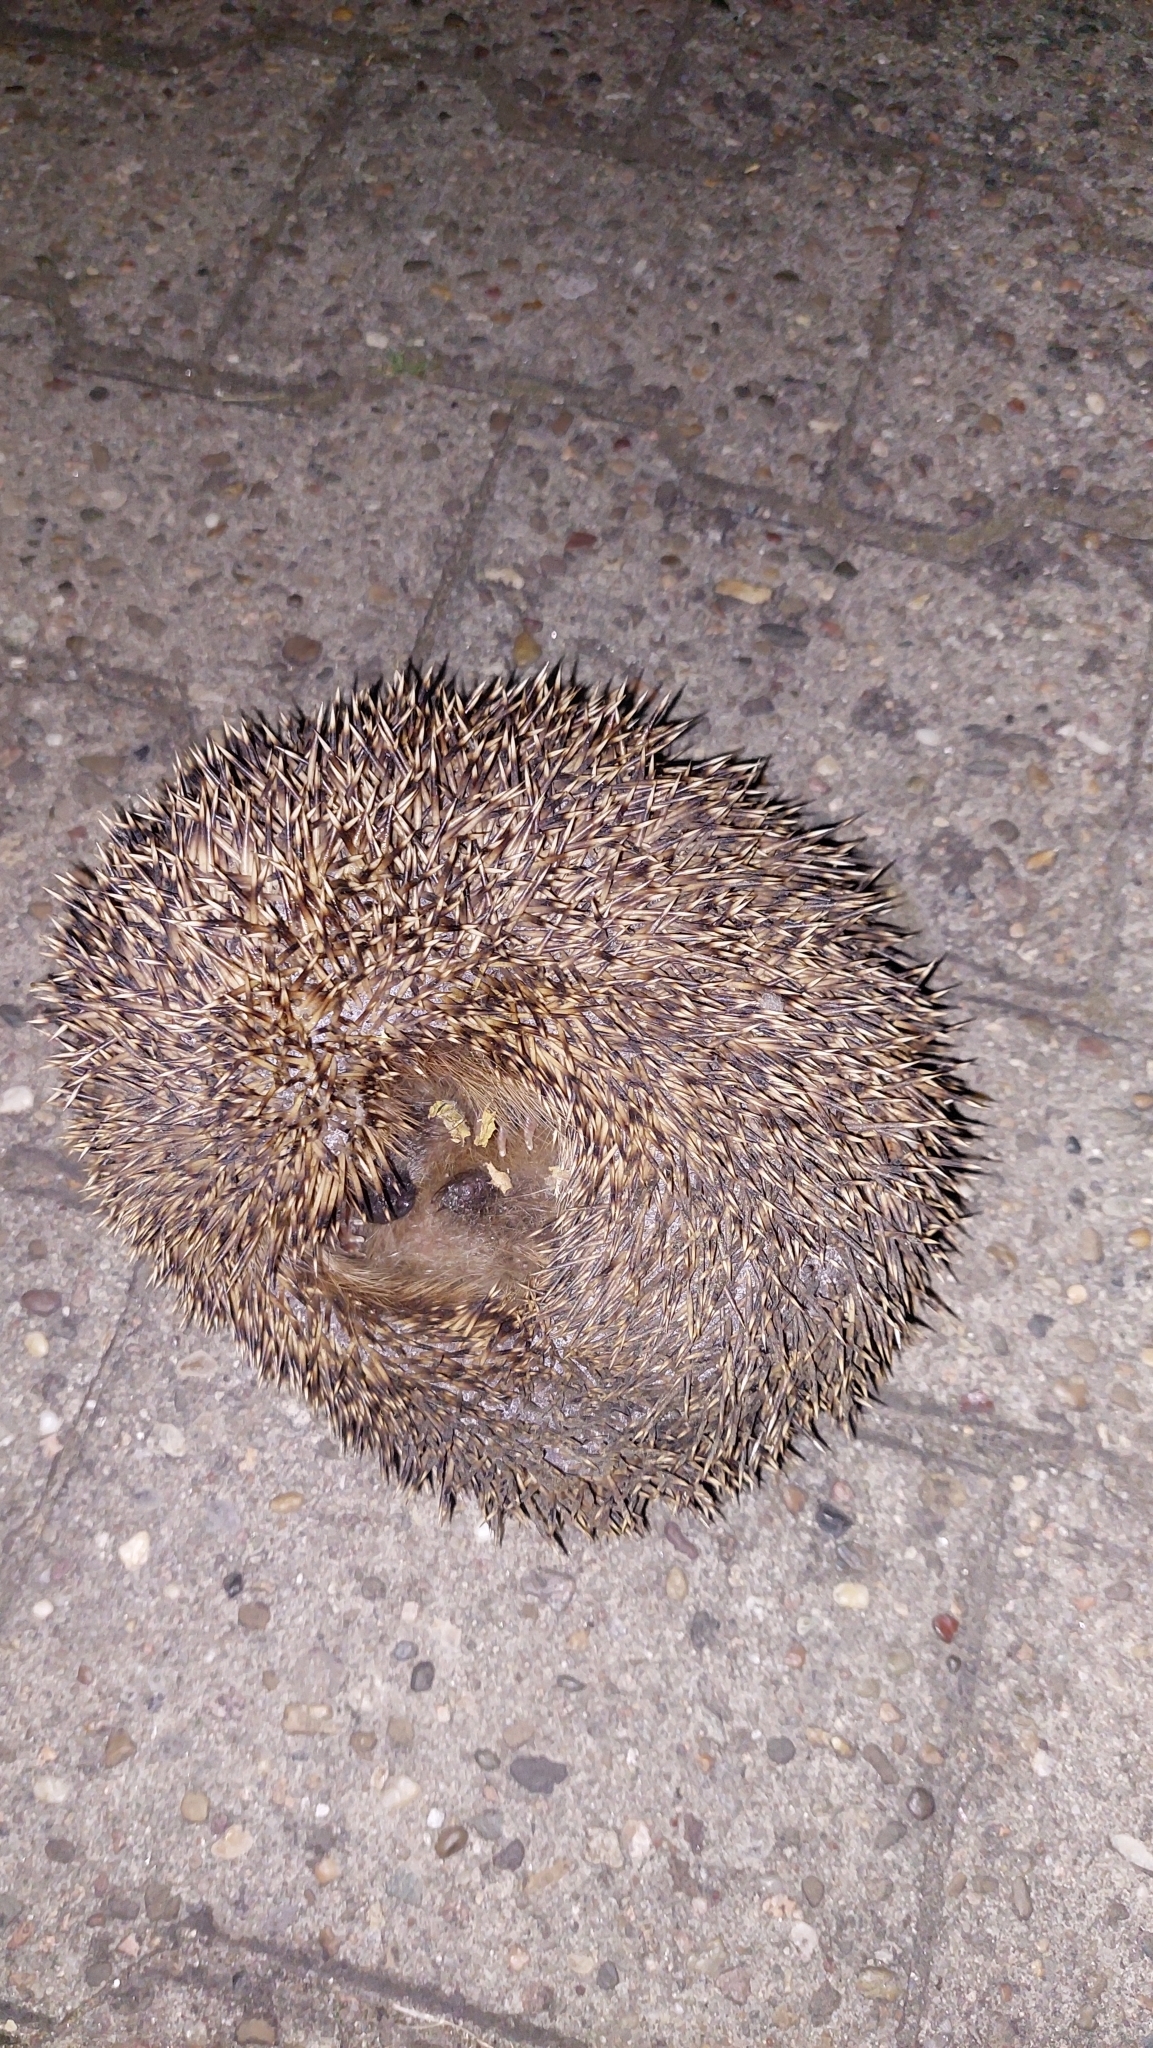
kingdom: Animalia
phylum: Chordata
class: Mammalia
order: Erinaceomorpha
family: Erinaceidae
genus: Erinaceus
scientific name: Erinaceus europaeus
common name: West european hedgehog
